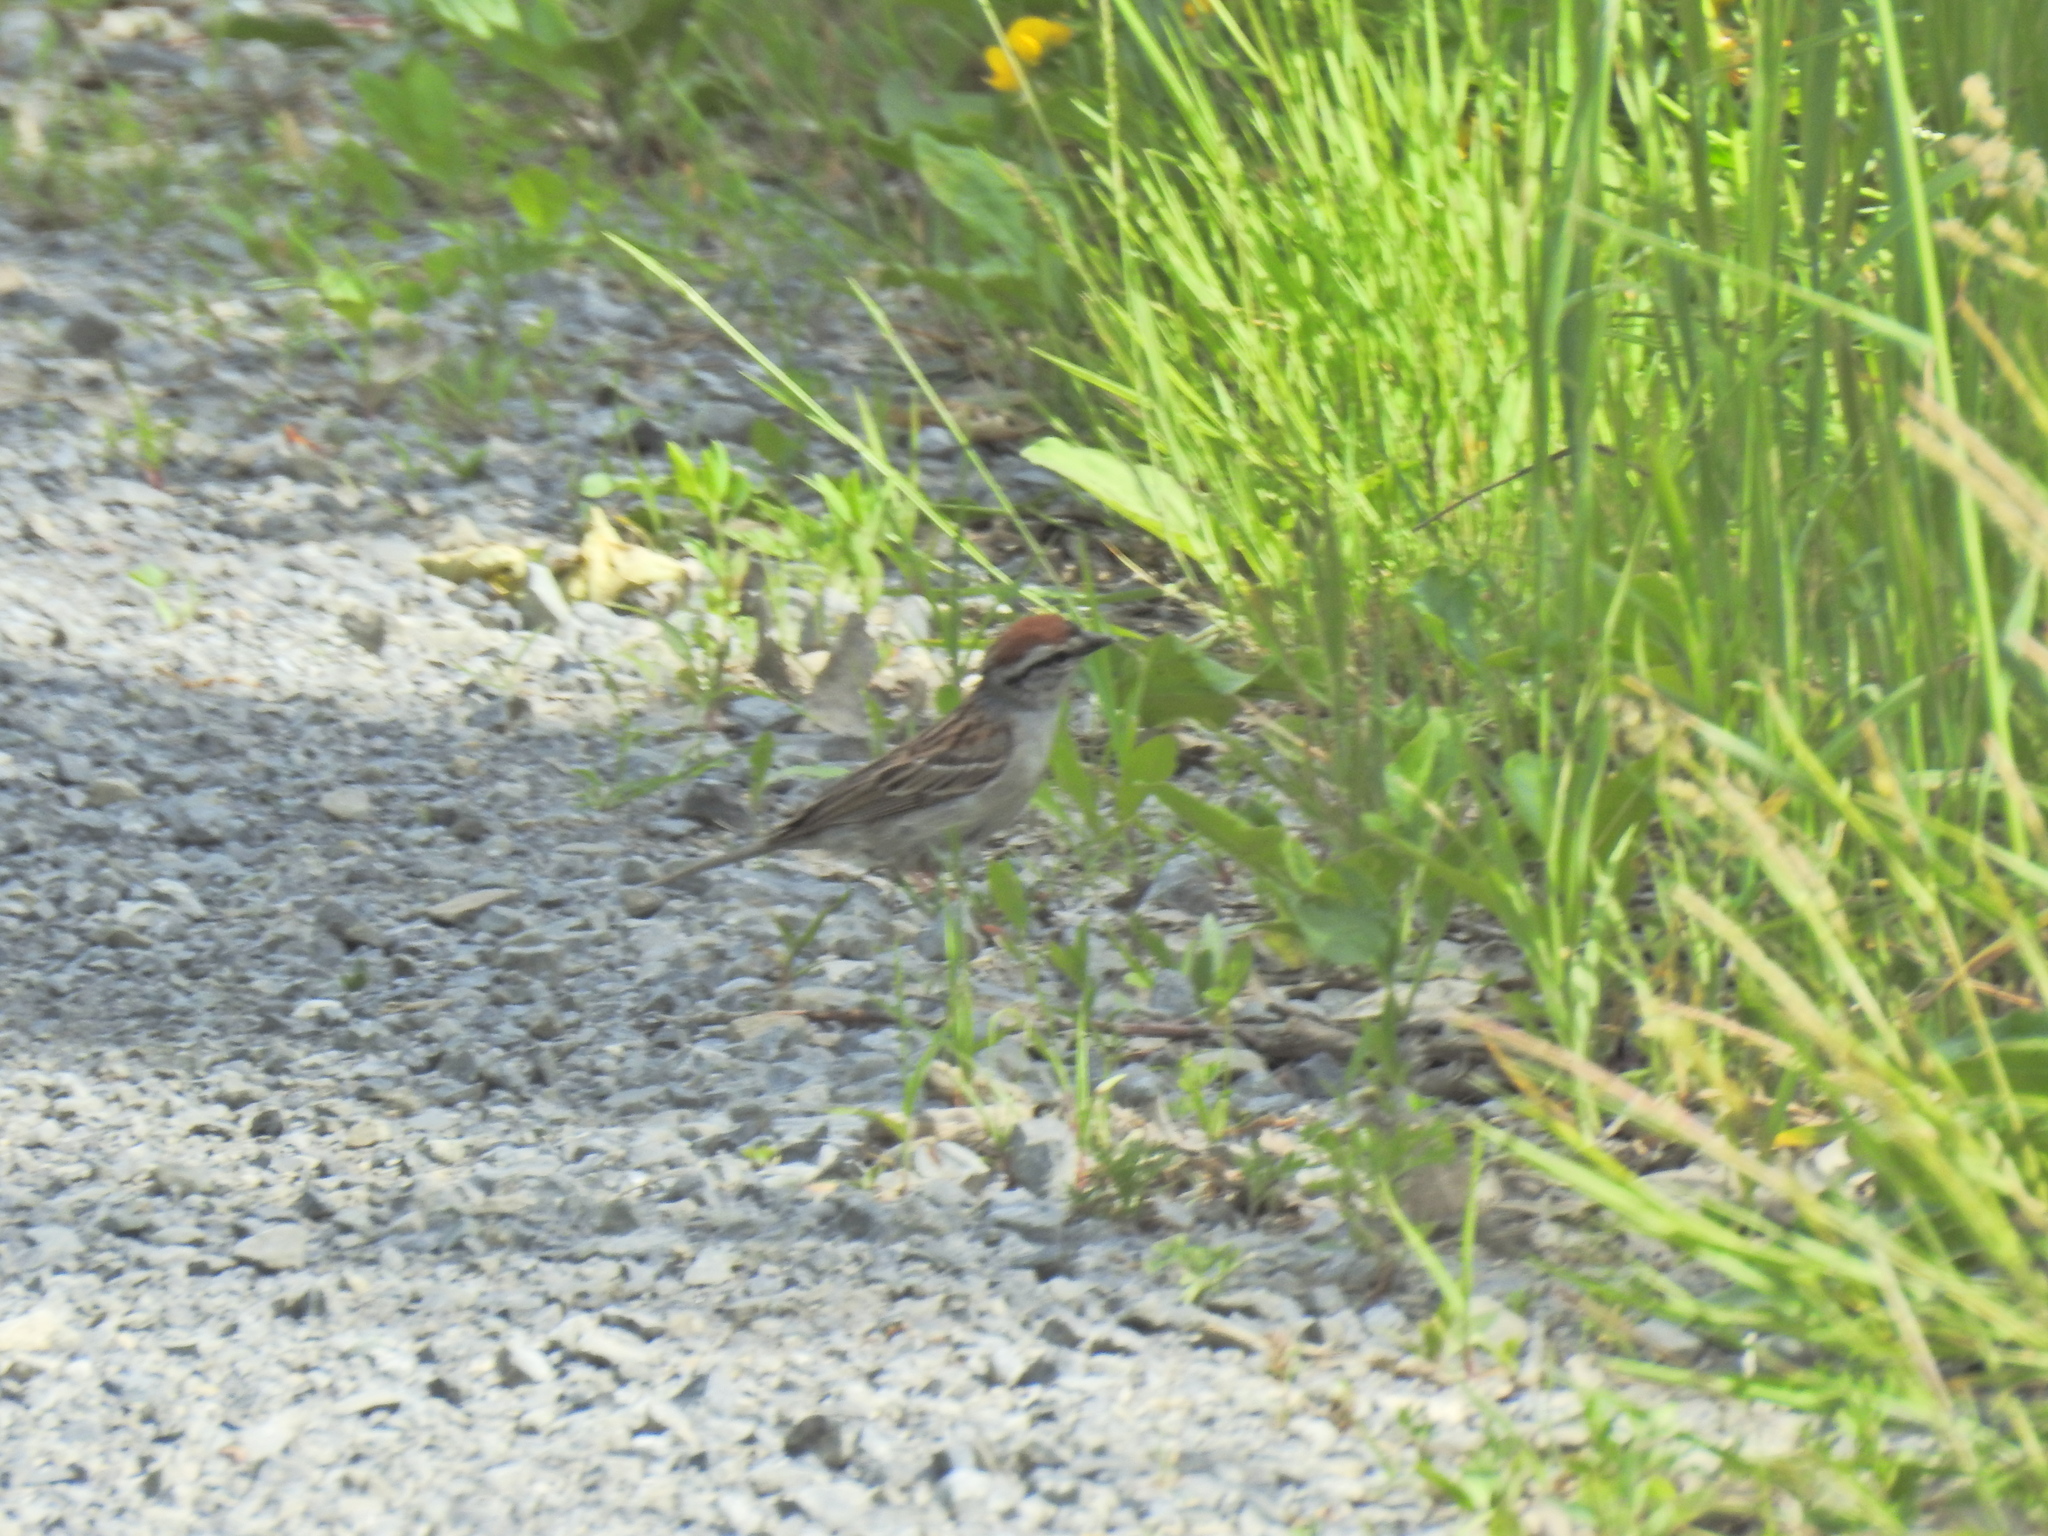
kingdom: Animalia
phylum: Chordata
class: Aves
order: Passeriformes
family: Passerellidae
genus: Spizella
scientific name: Spizella passerina
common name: Chipping sparrow
